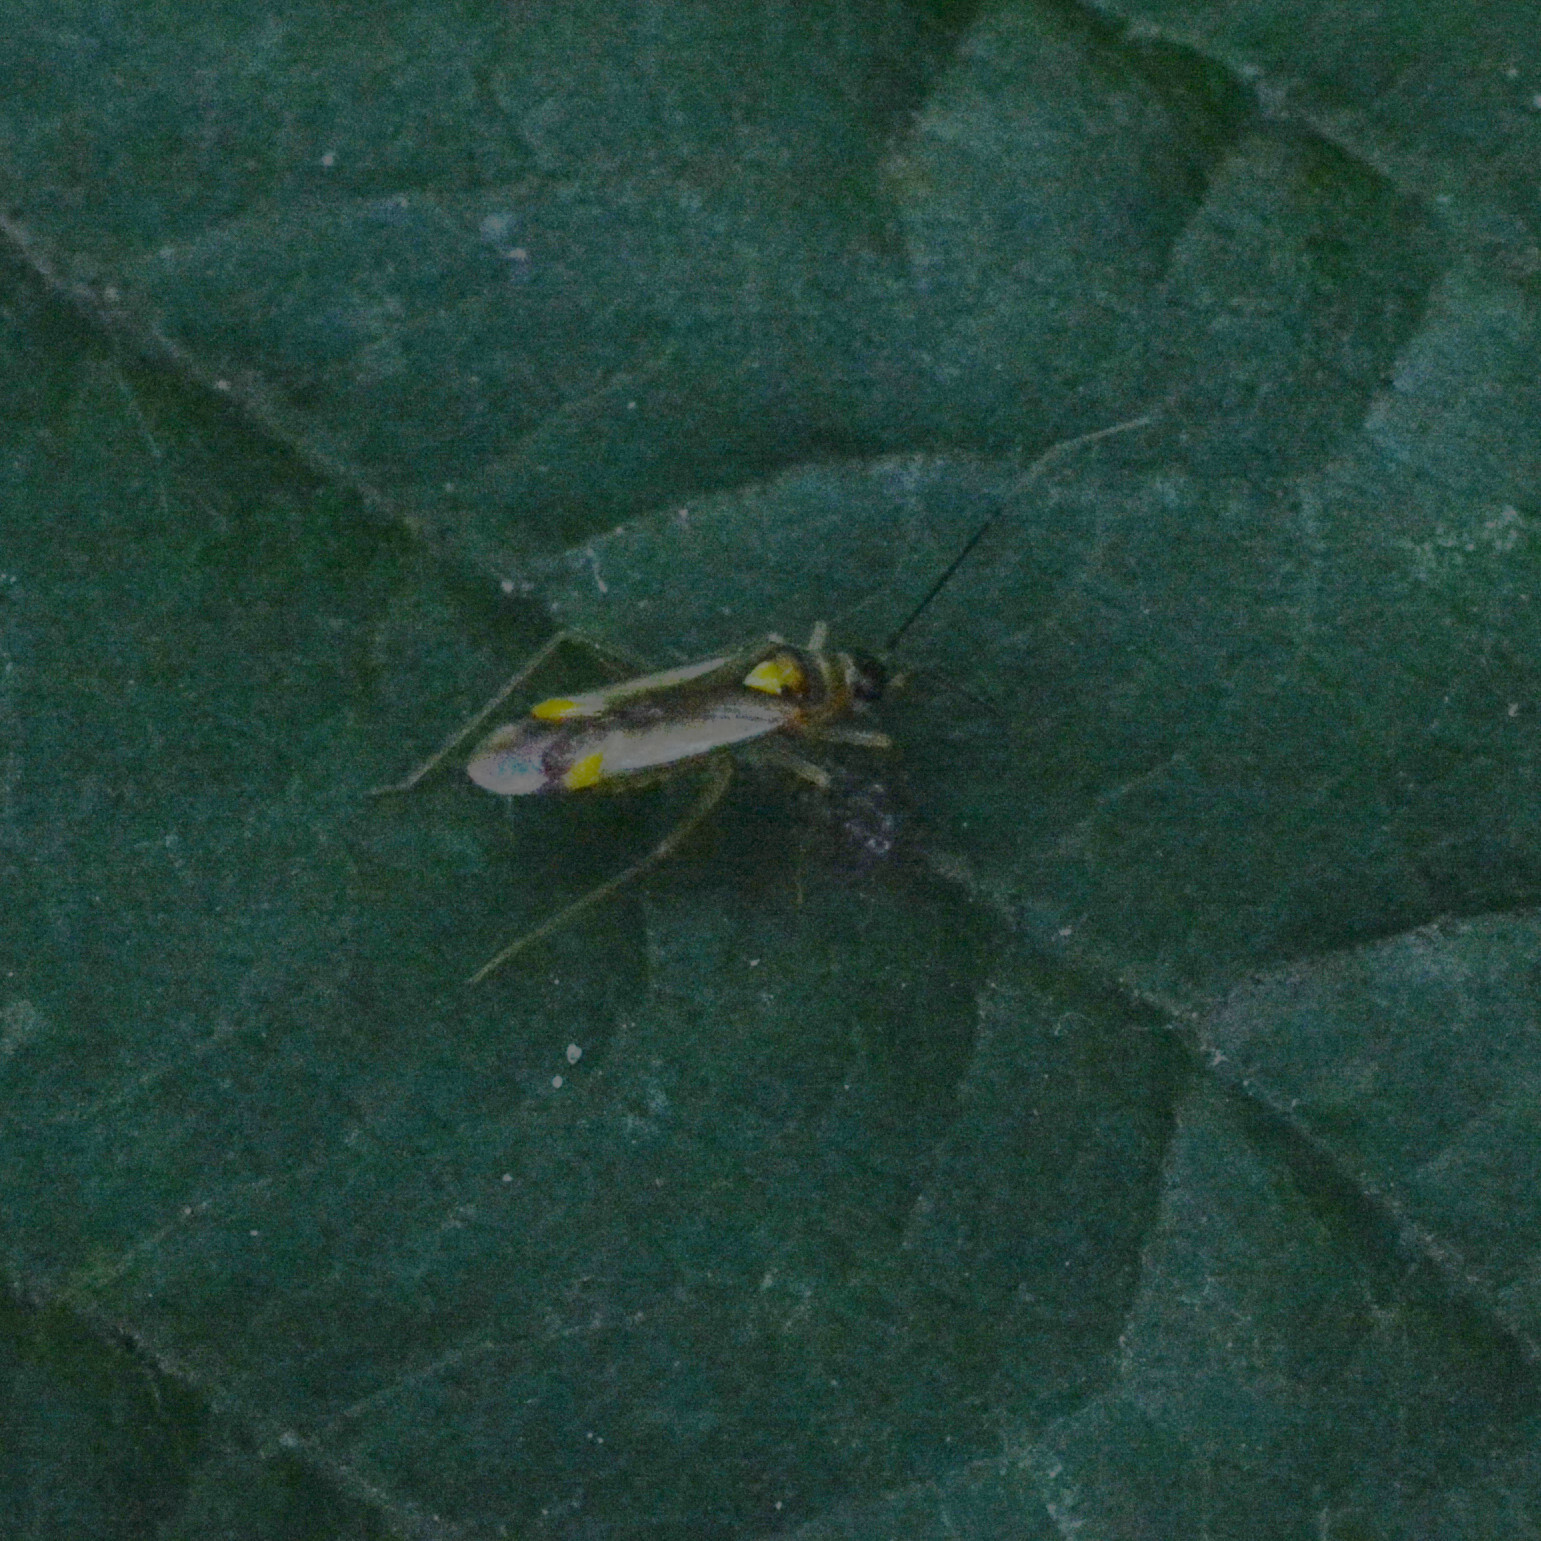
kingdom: Animalia
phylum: Arthropoda
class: Insecta
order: Hemiptera
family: Miridae
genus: Campyloneura
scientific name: Campyloneura virgula
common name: Predatory bug
